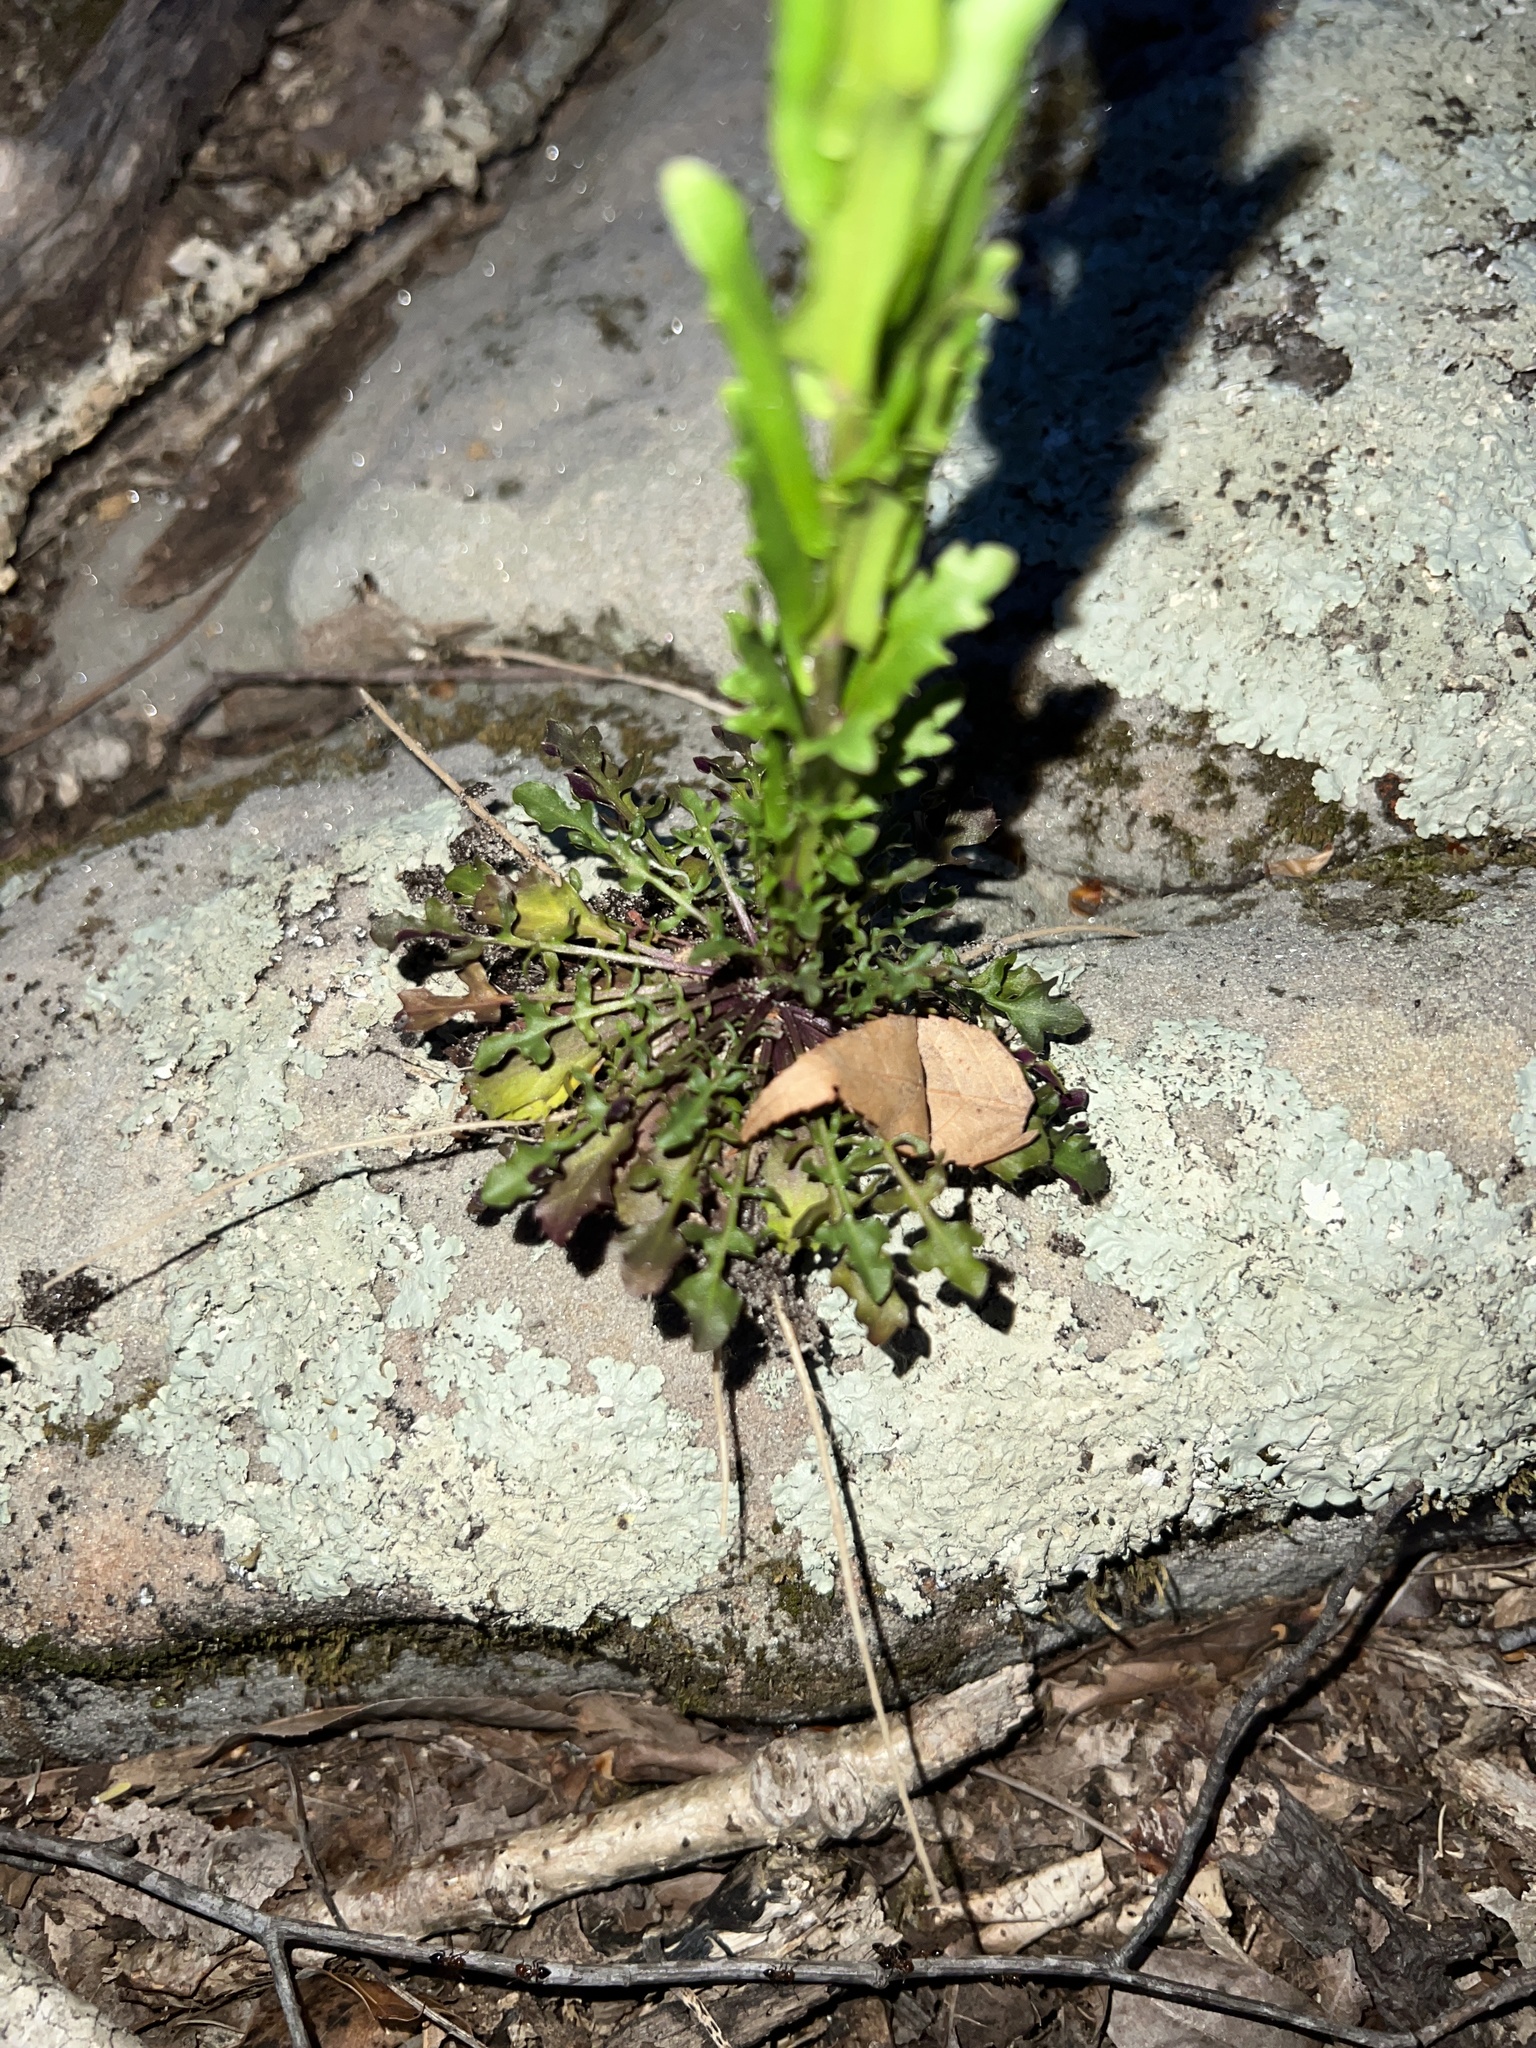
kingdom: Plantae
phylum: Tracheophyta
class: Magnoliopsida
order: Brassicales
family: Brassicaceae
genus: Borodinia
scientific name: Borodinia missouriensis
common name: Green rockcress
